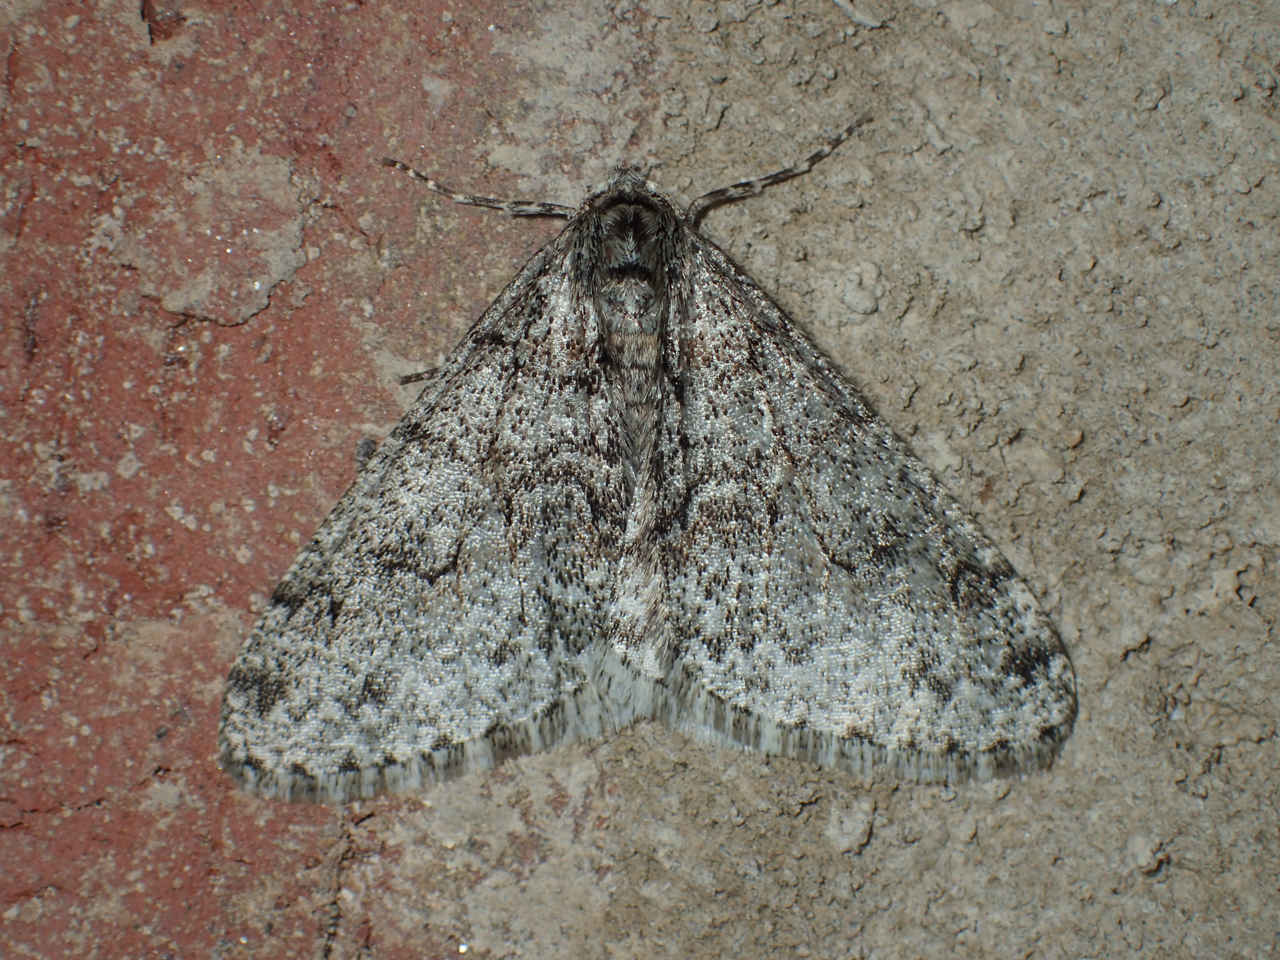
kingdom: Animalia
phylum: Arthropoda
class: Insecta
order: Lepidoptera
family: Geometridae
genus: Phigalia
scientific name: Phigalia denticulata
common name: Toothed phigalia
